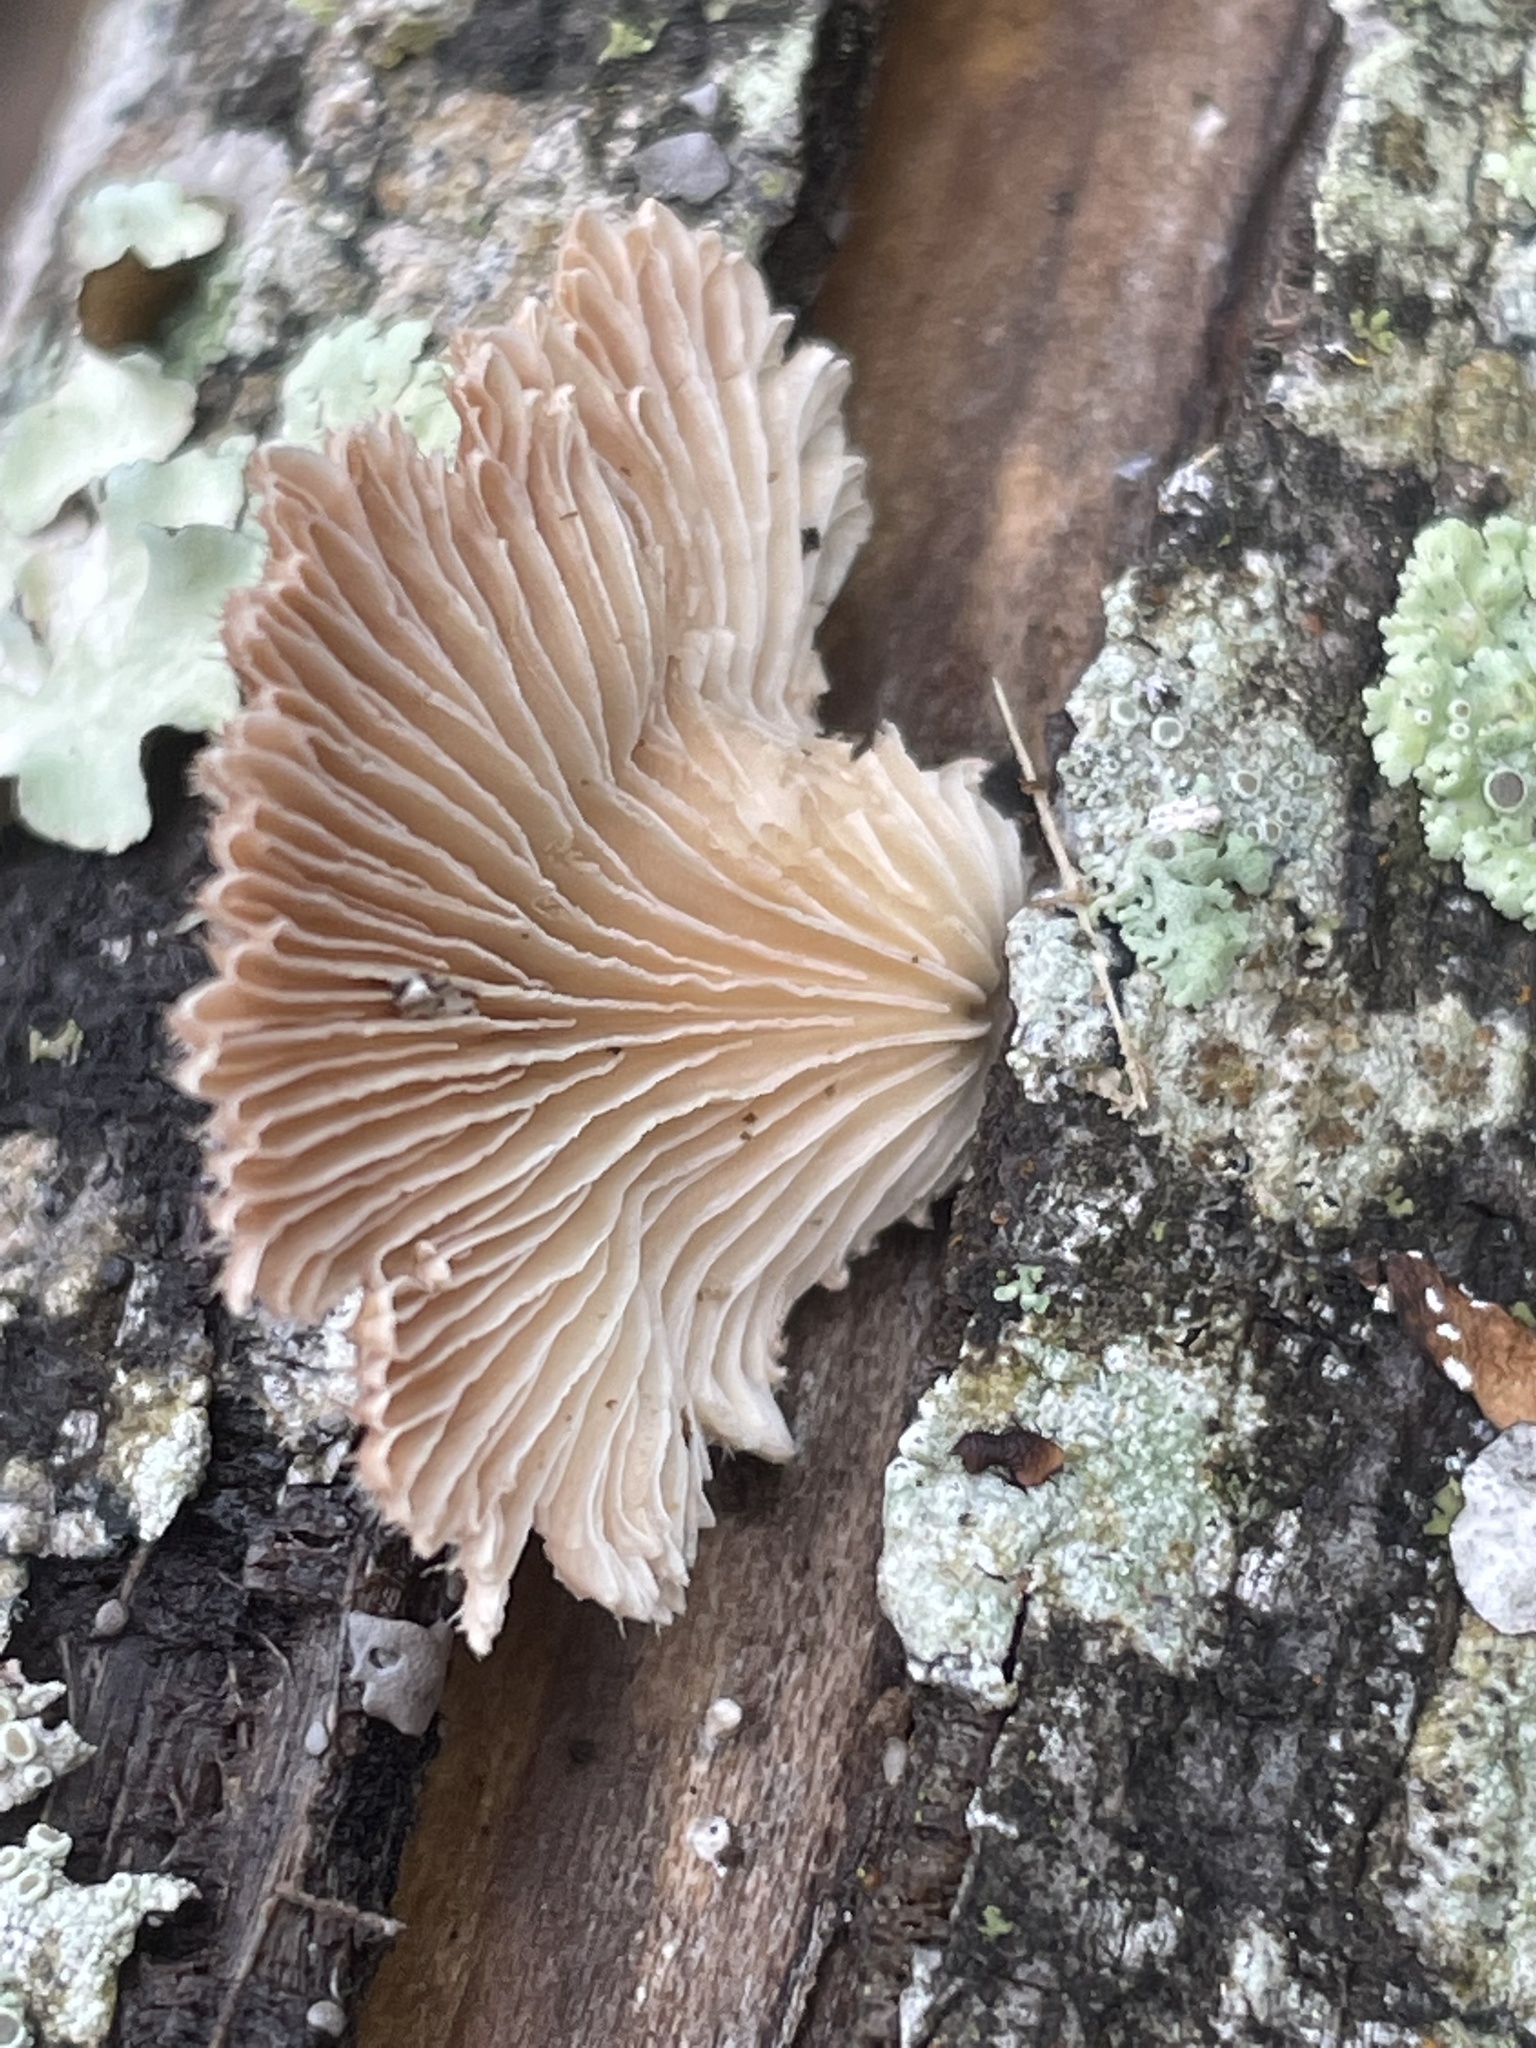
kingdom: Fungi
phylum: Basidiomycota
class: Agaricomycetes
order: Agaricales
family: Schizophyllaceae
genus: Schizophyllum
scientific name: Schizophyllum commune
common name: Common porecrust
